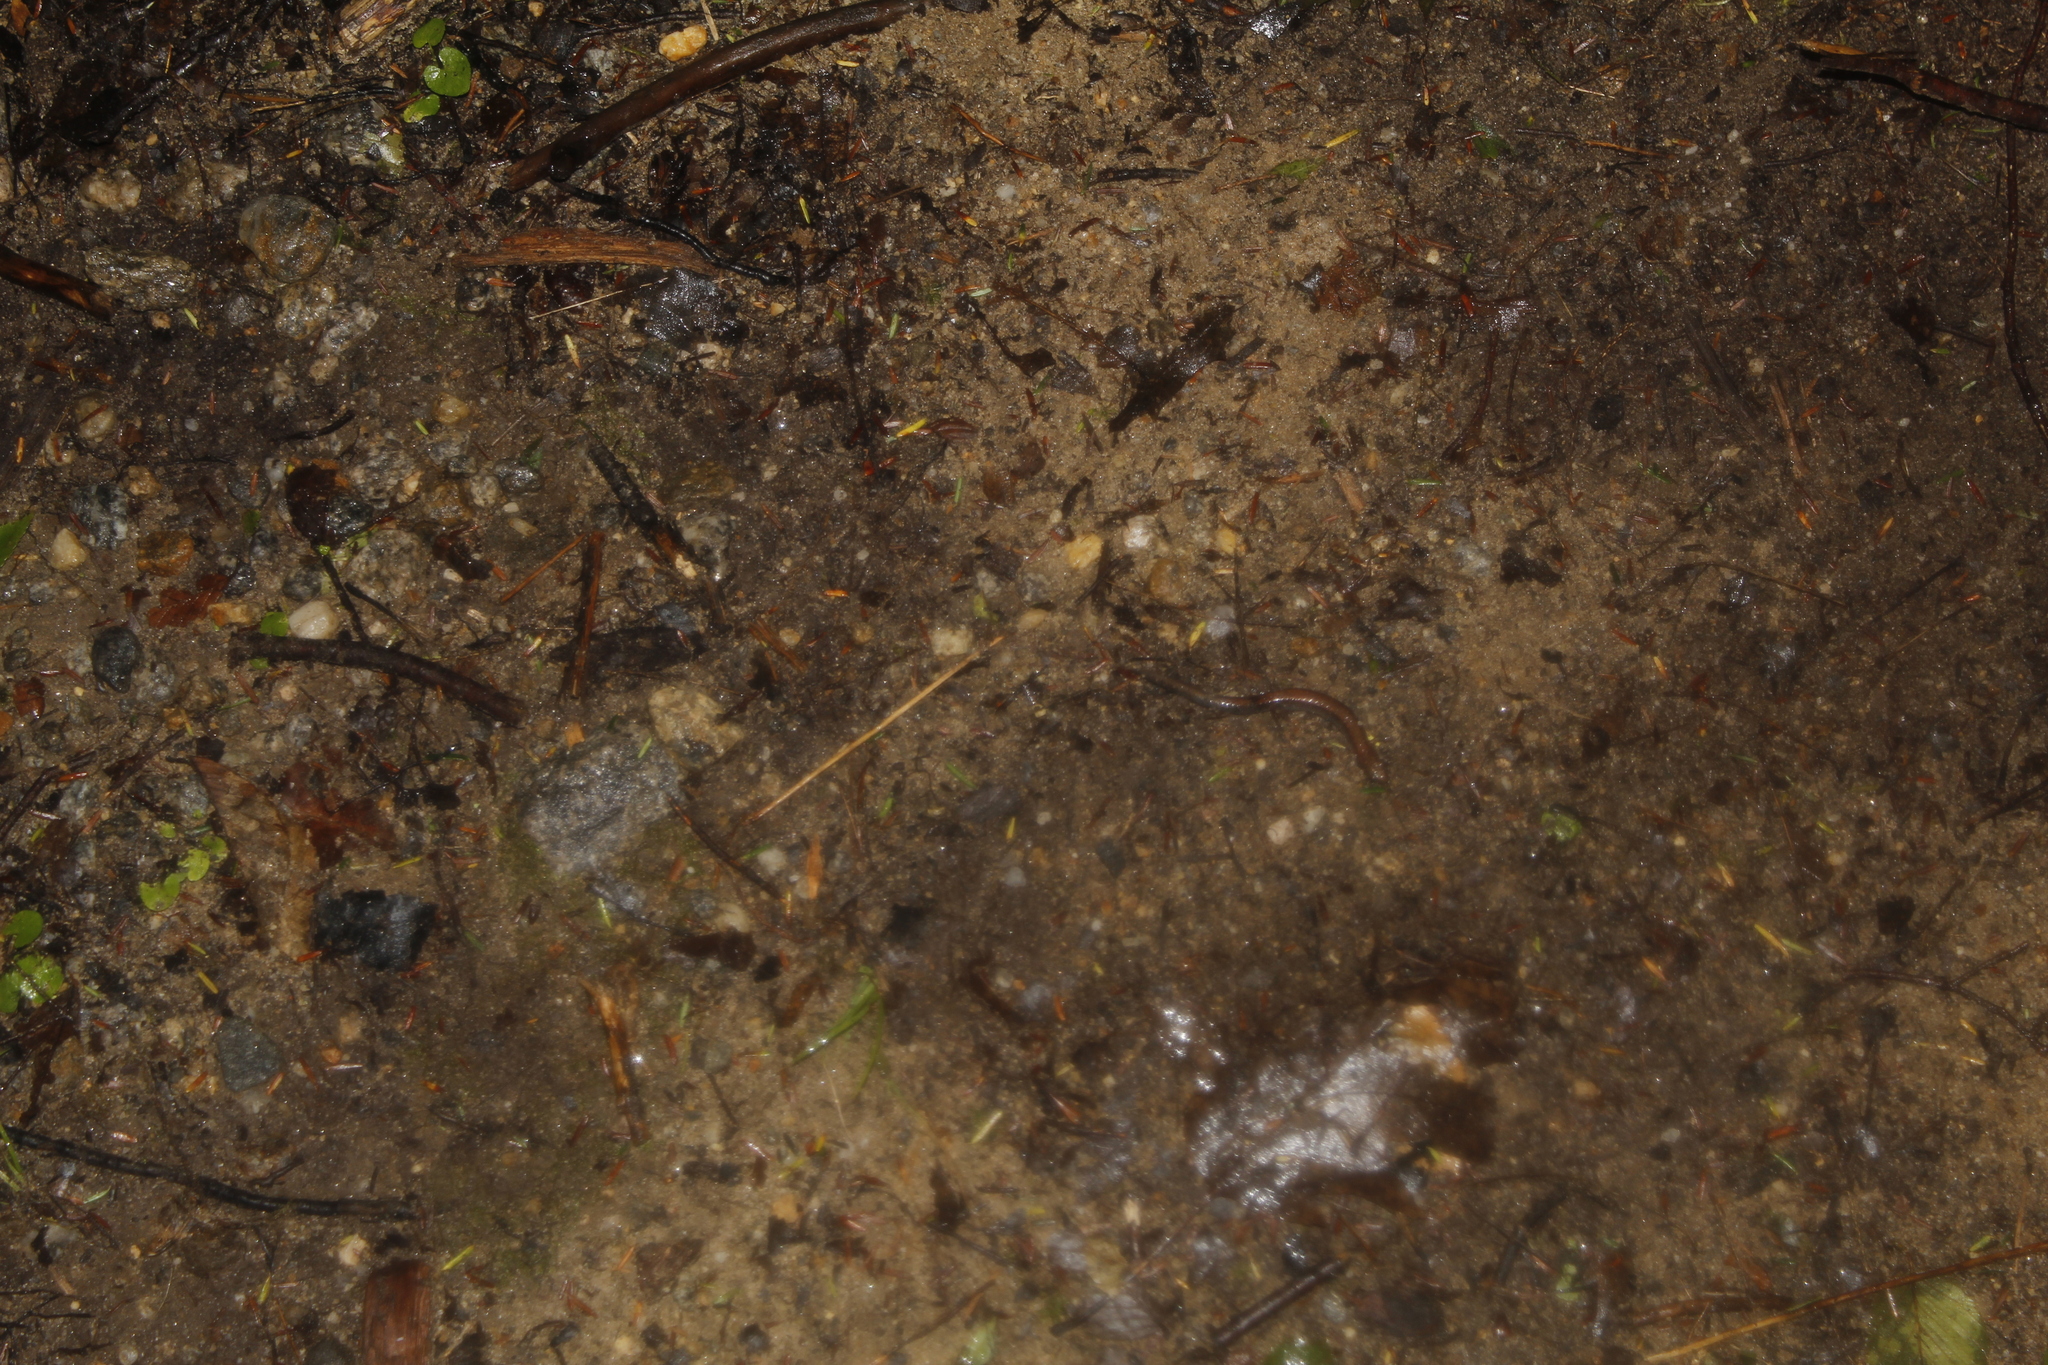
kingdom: Animalia
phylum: Chordata
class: Amphibia
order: Caudata
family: Plethodontidae
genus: Plethodon
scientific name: Plethodon cinereus
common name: Redback salamander
